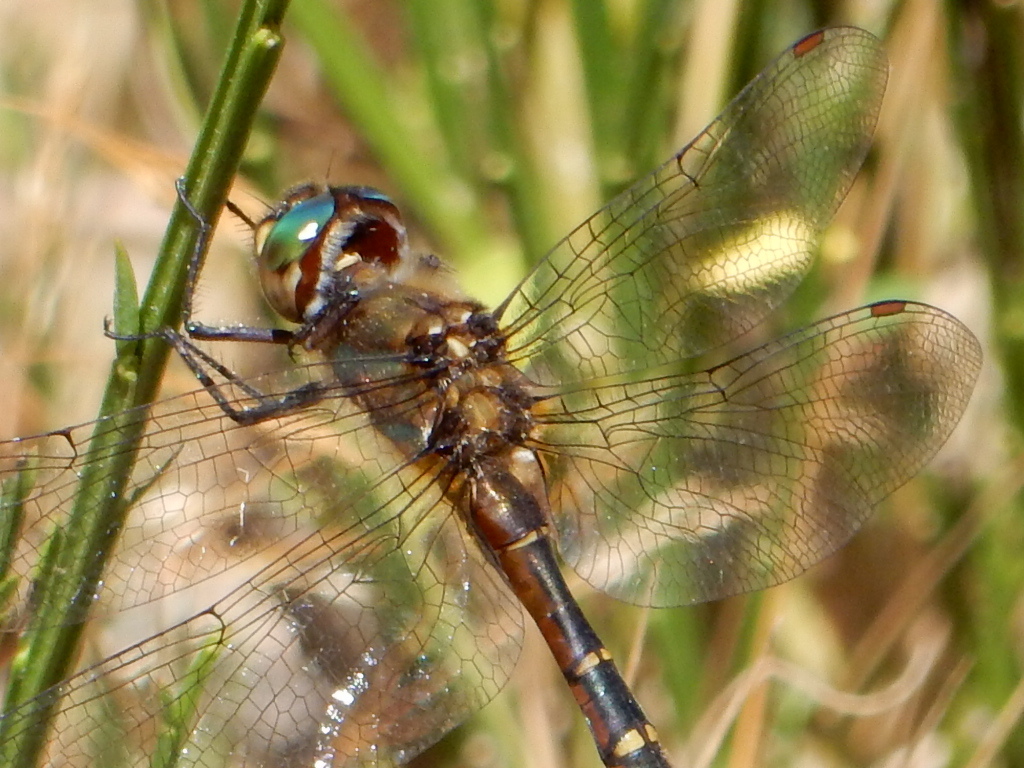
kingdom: Animalia
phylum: Arthropoda
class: Insecta
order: Odonata
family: Corduliidae
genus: Procordulia
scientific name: Procordulia smithii
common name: Ranger dragonfly
